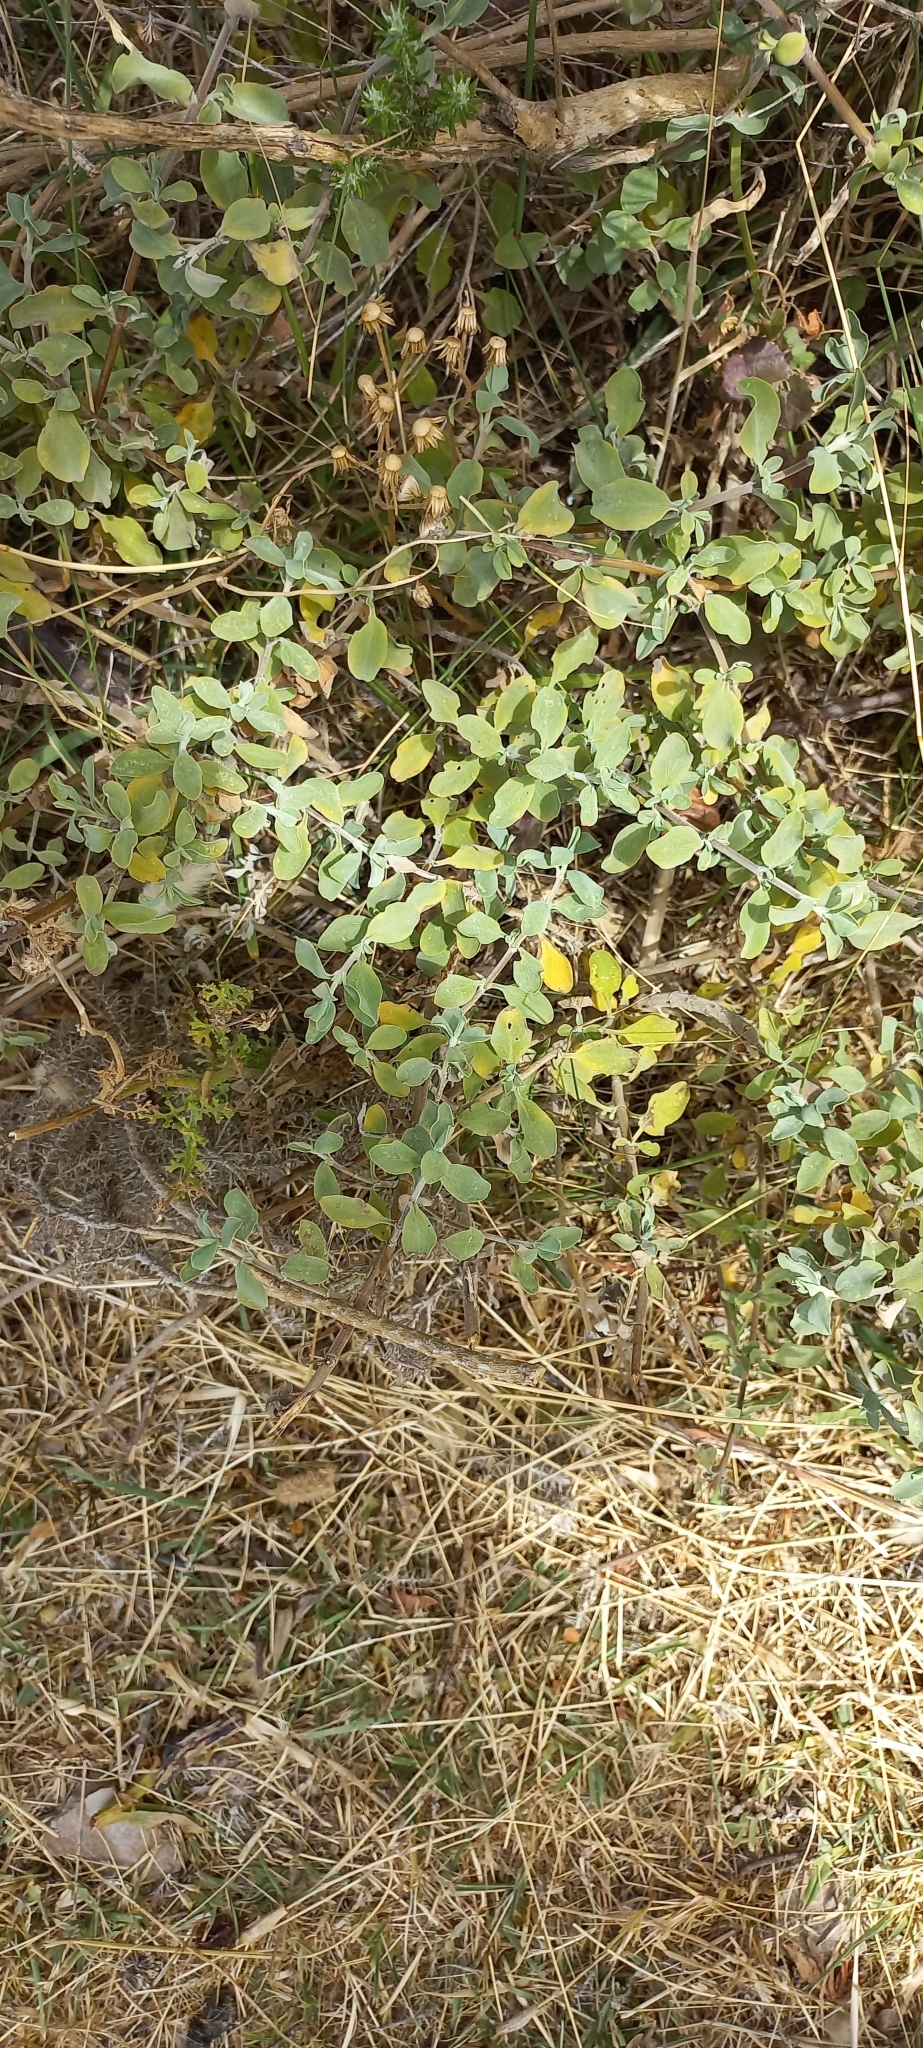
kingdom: Plantae
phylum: Tracheophyta
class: Magnoliopsida
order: Lamiales
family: Lamiaceae
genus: Salvia
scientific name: Salvia aurea
